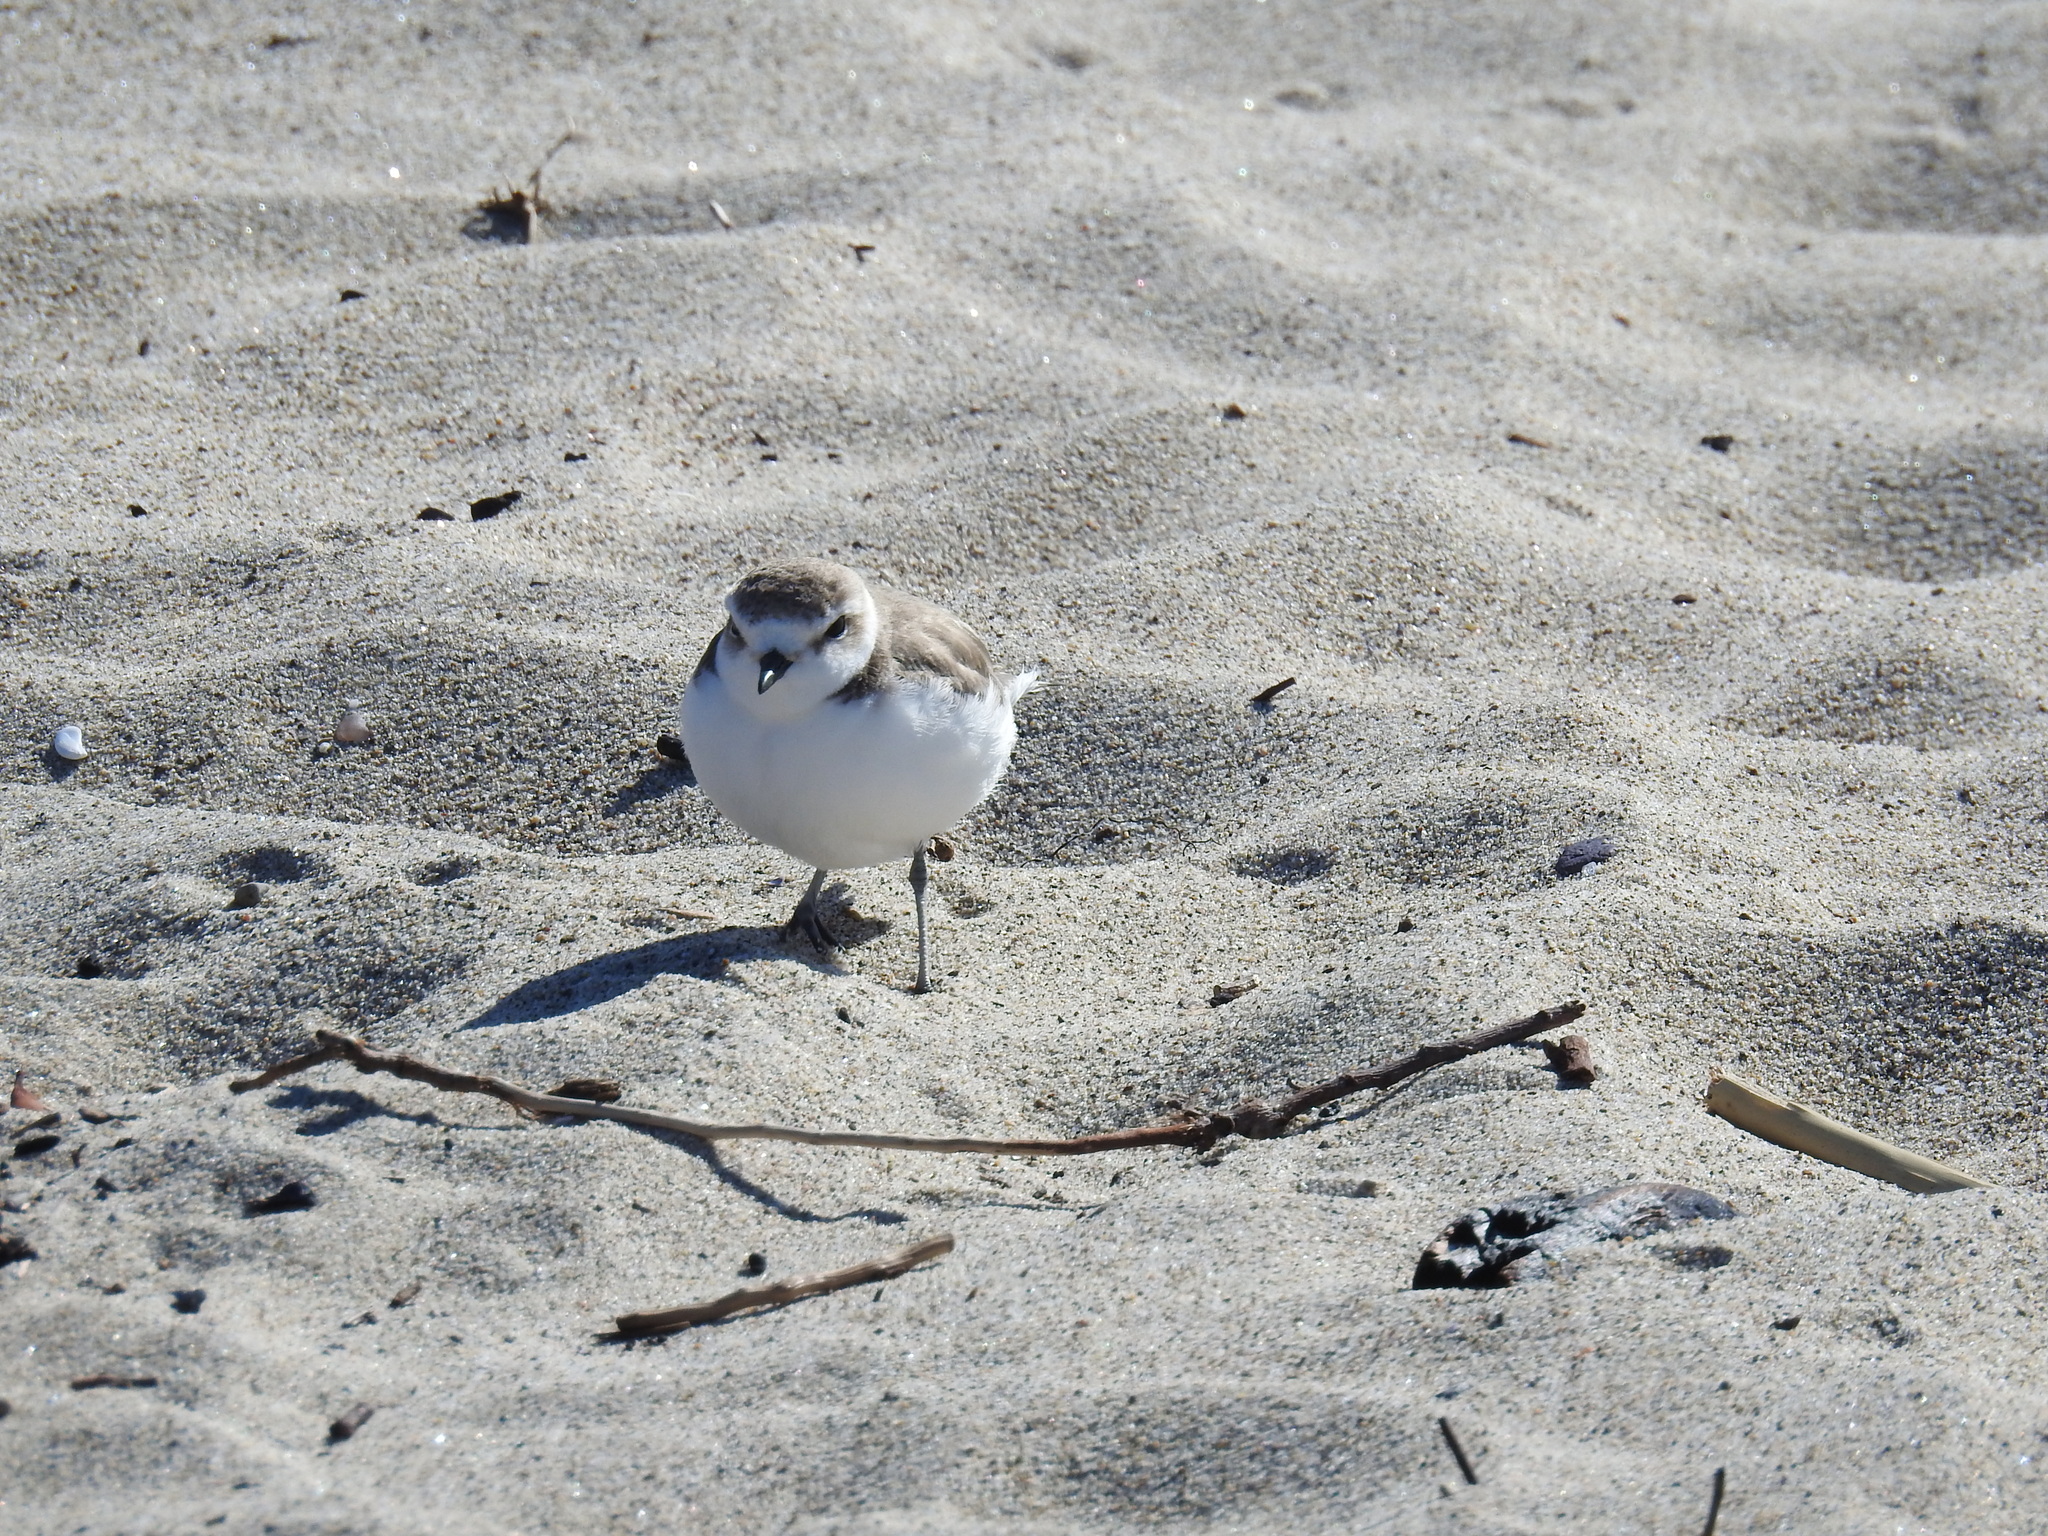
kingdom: Animalia
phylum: Chordata
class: Aves
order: Charadriiformes
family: Charadriidae
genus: Anarhynchus
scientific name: Anarhynchus
